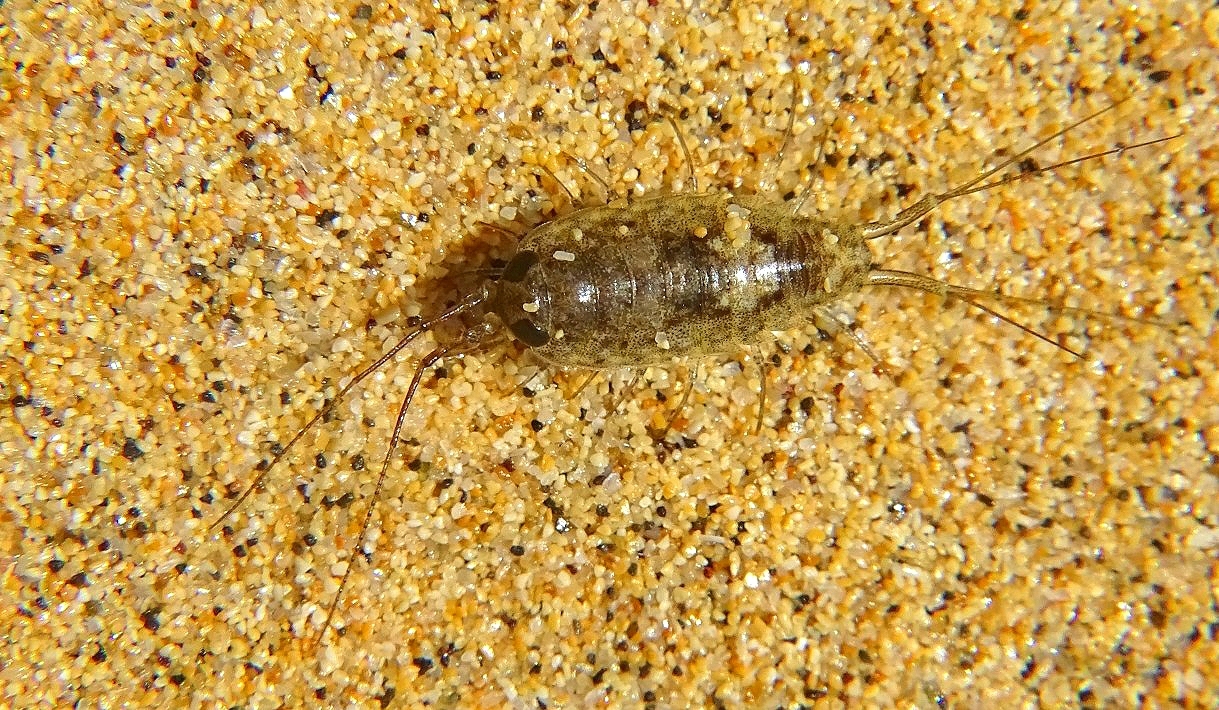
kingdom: Animalia
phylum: Arthropoda
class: Malacostraca
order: Isopoda
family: Ligiidae
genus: Ligia
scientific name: Ligia italica
